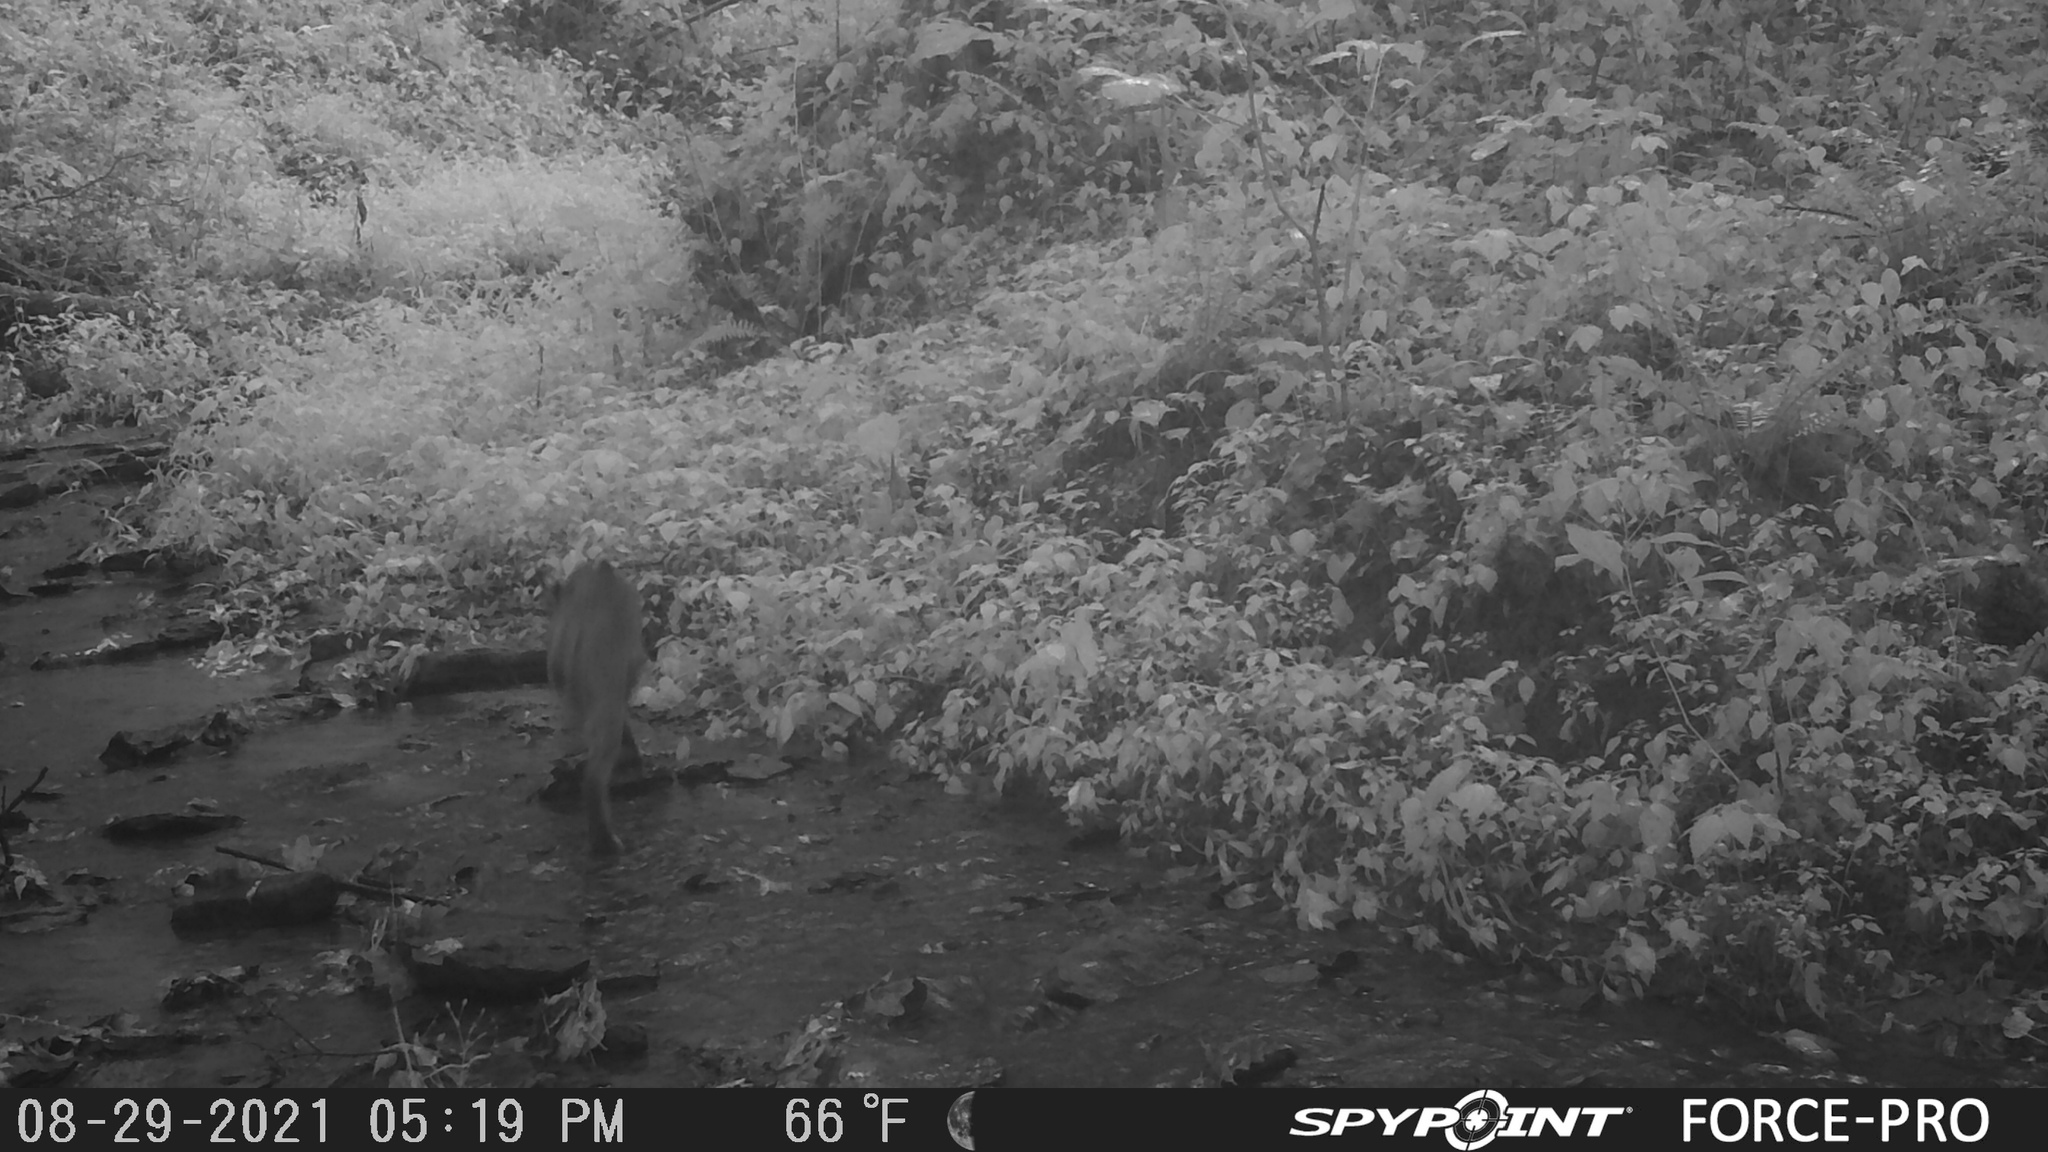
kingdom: Animalia
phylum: Chordata
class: Mammalia
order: Carnivora
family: Felidae
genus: Lynx
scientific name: Lynx rufus
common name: Bobcat
